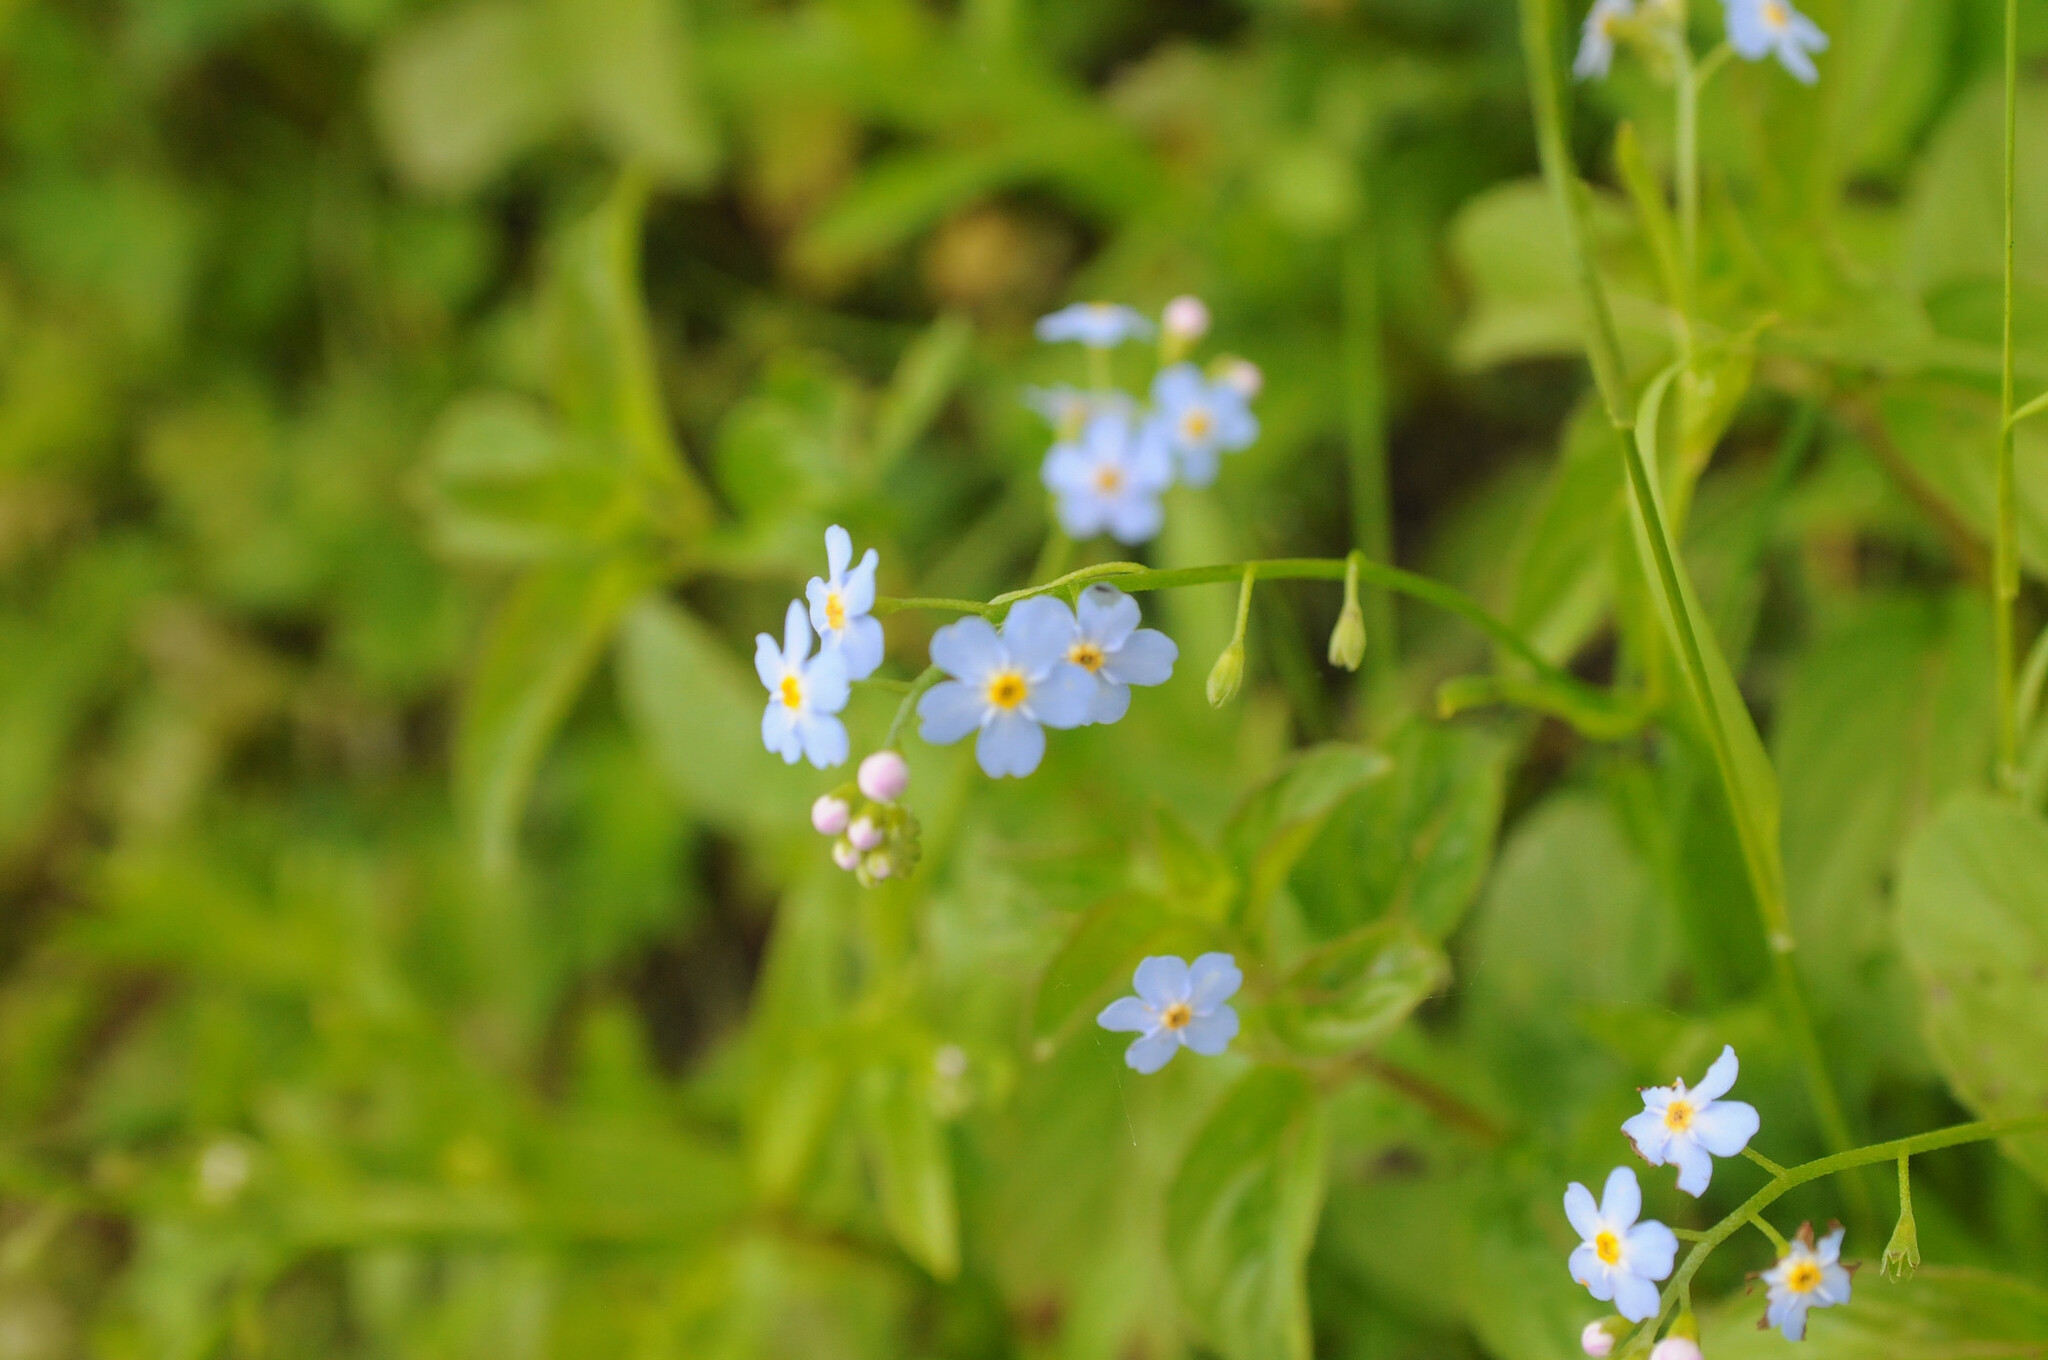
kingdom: Plantae
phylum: Tracheophyta
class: Magnoliopsida
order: Boraginales
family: Boraginaceae
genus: Myosotis
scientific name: Myosotis scorpioides
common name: Water forget-me-not
